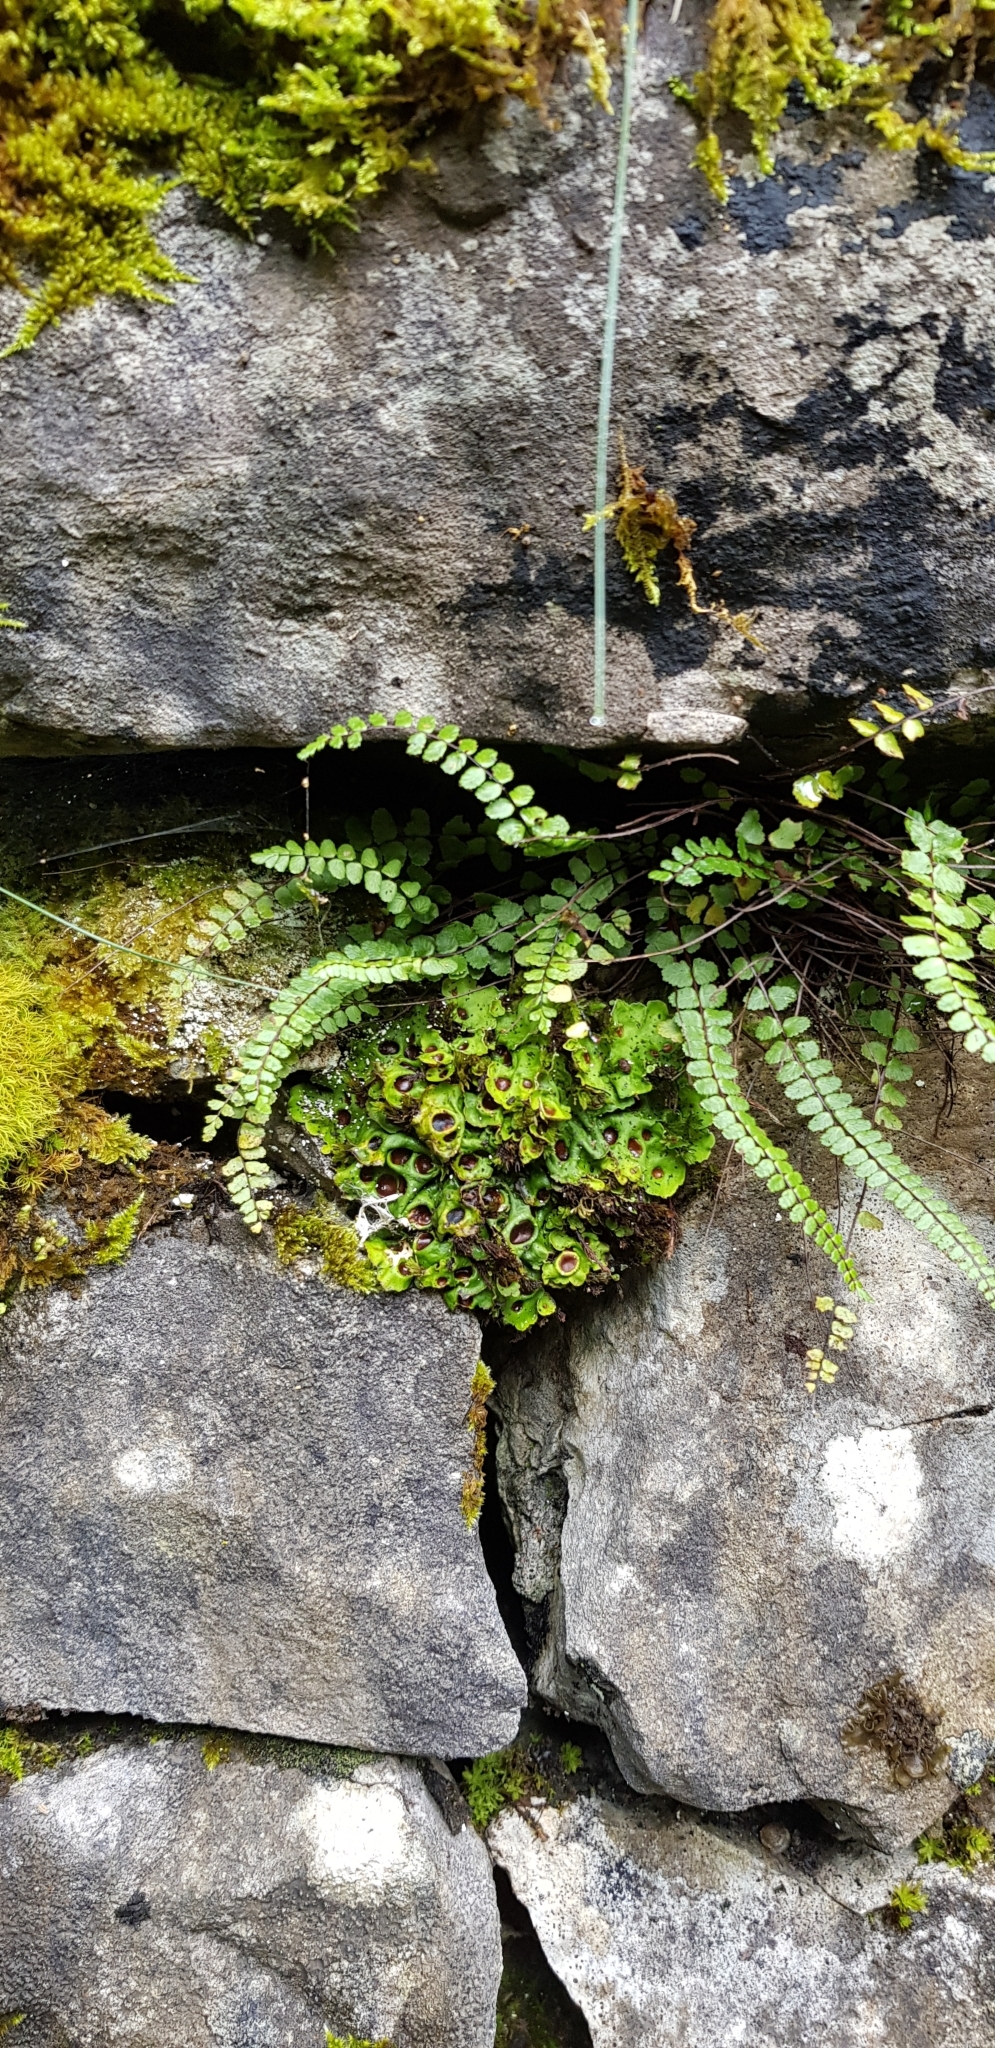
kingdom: Fungi
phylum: Ascomycota
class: Lecanoromycetes
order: Peltigerales
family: Peltigeraceae
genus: Solorina
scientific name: Solorina saccata
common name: Common chocolate chip lichen
